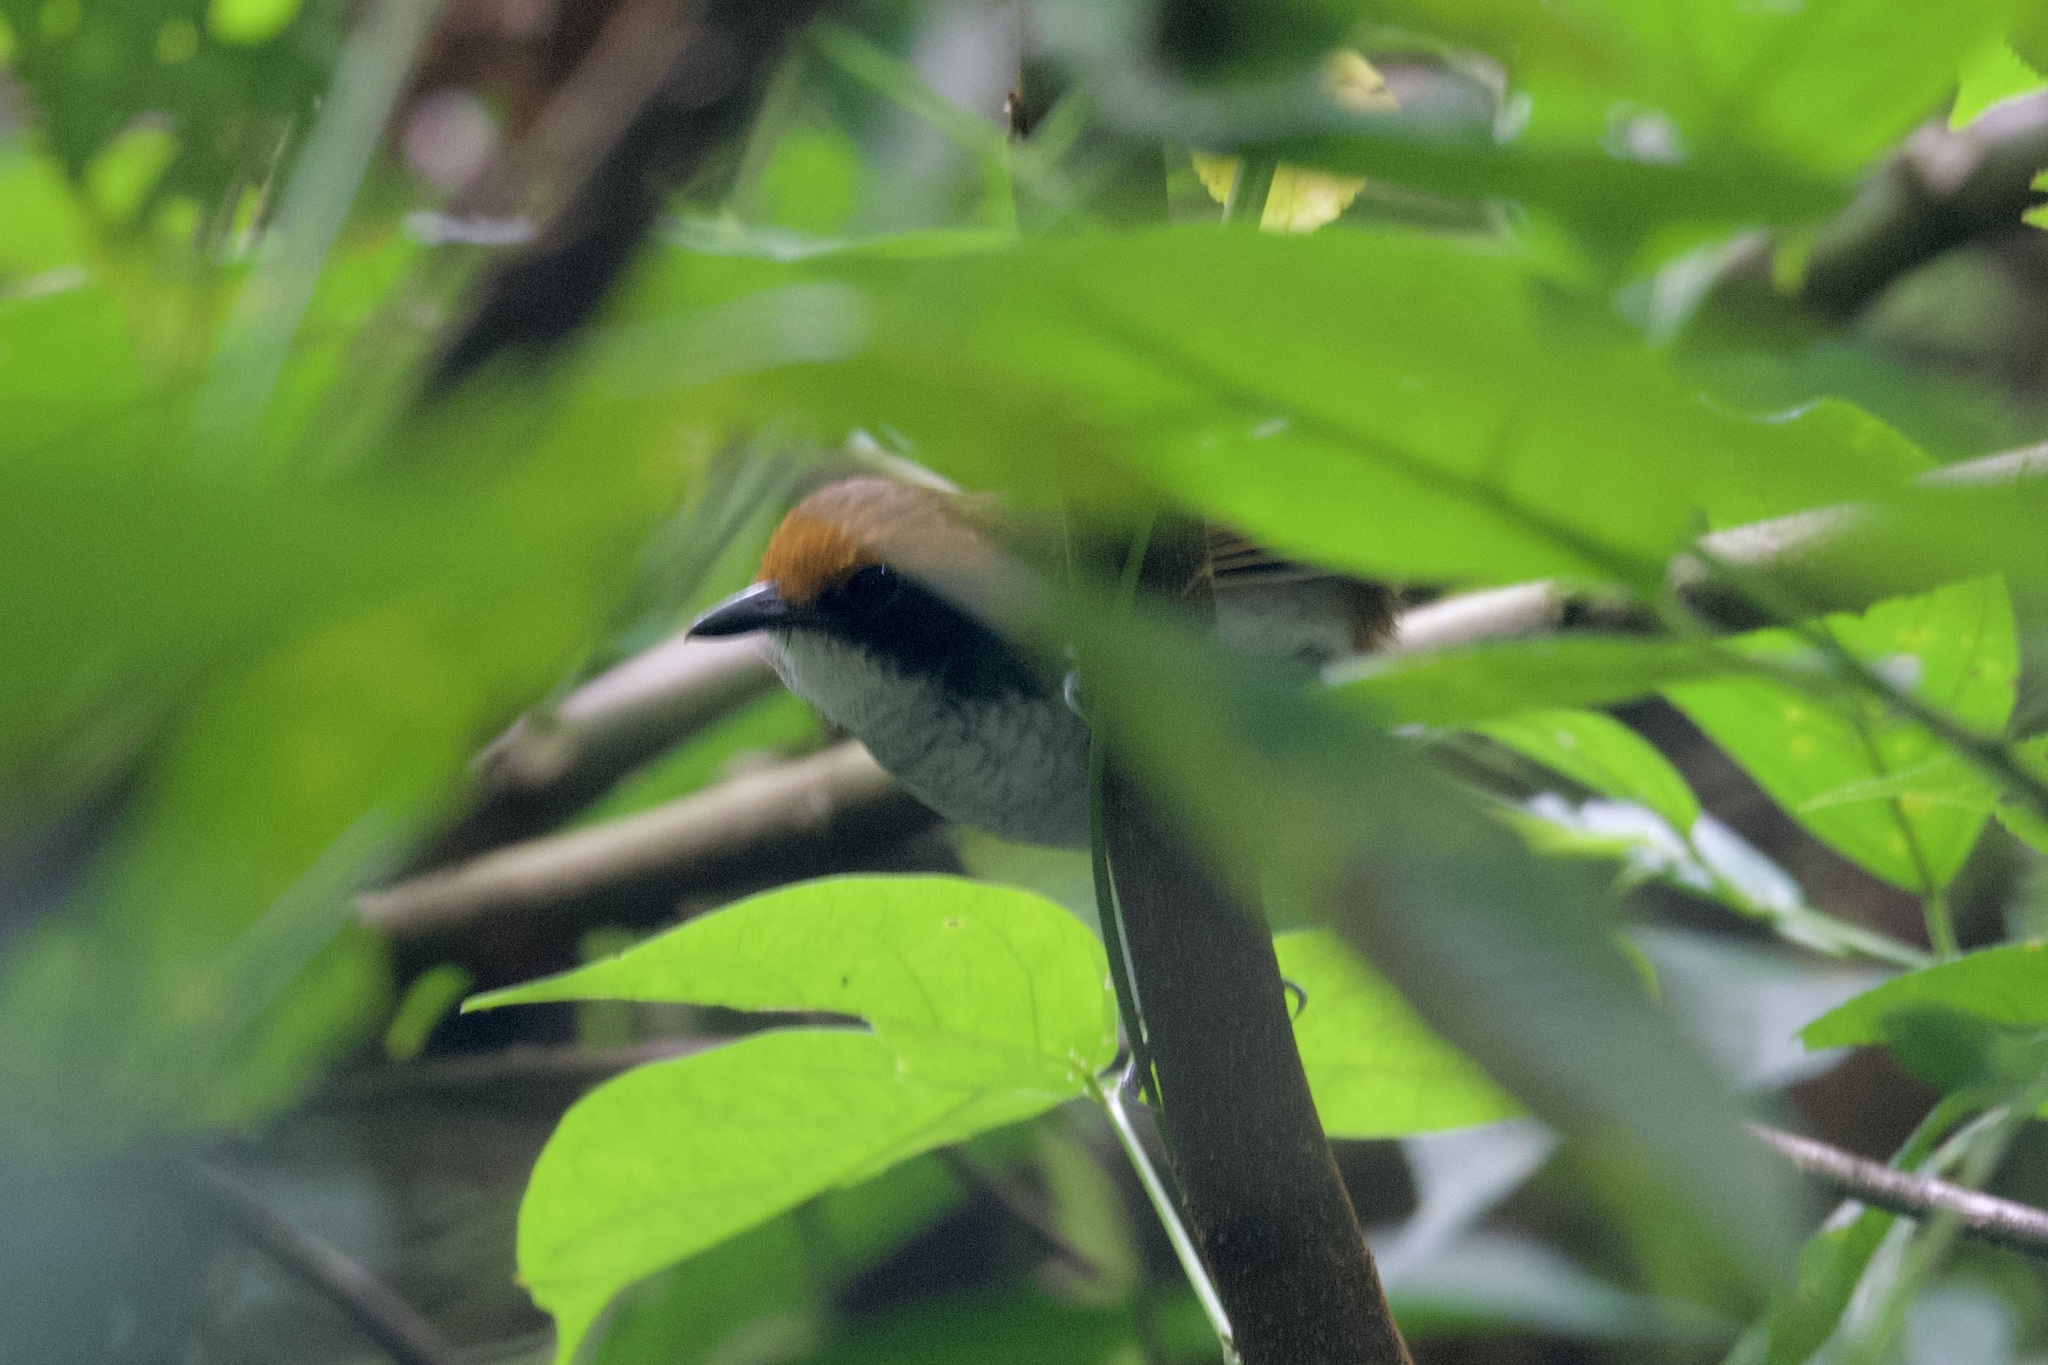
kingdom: Animalia
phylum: Chordata
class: Aves
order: Passeriformes
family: Thamnophilidae
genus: Myrmoborus
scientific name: Myrmoborus leucophrys
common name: White-browed antbird
